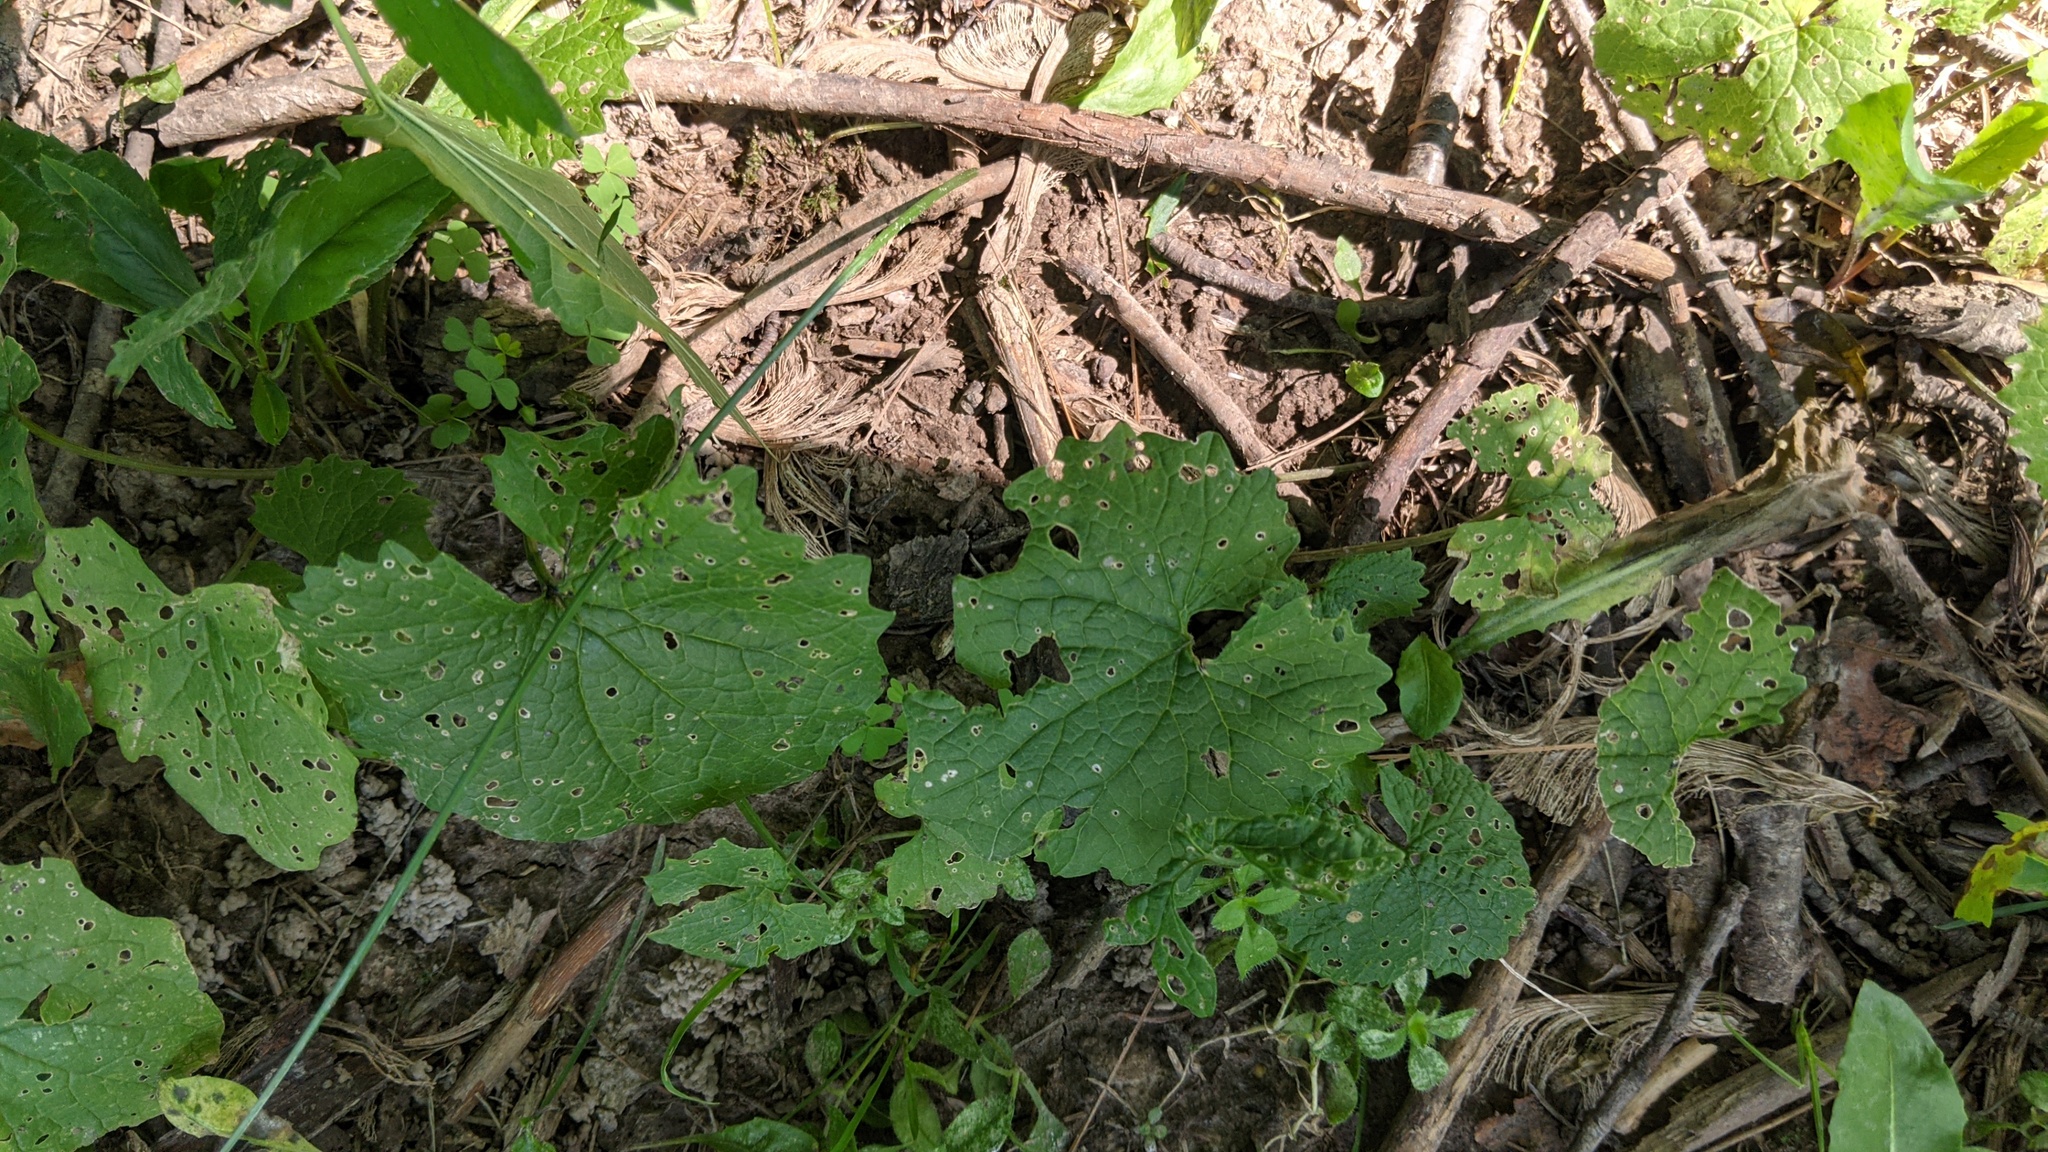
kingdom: Plantae
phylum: Tracheophyta
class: Magnoliopsida
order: Brassicales
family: Brassicaceae
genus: Alliaria
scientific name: Alliaria petiolata
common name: Garlic mustard
